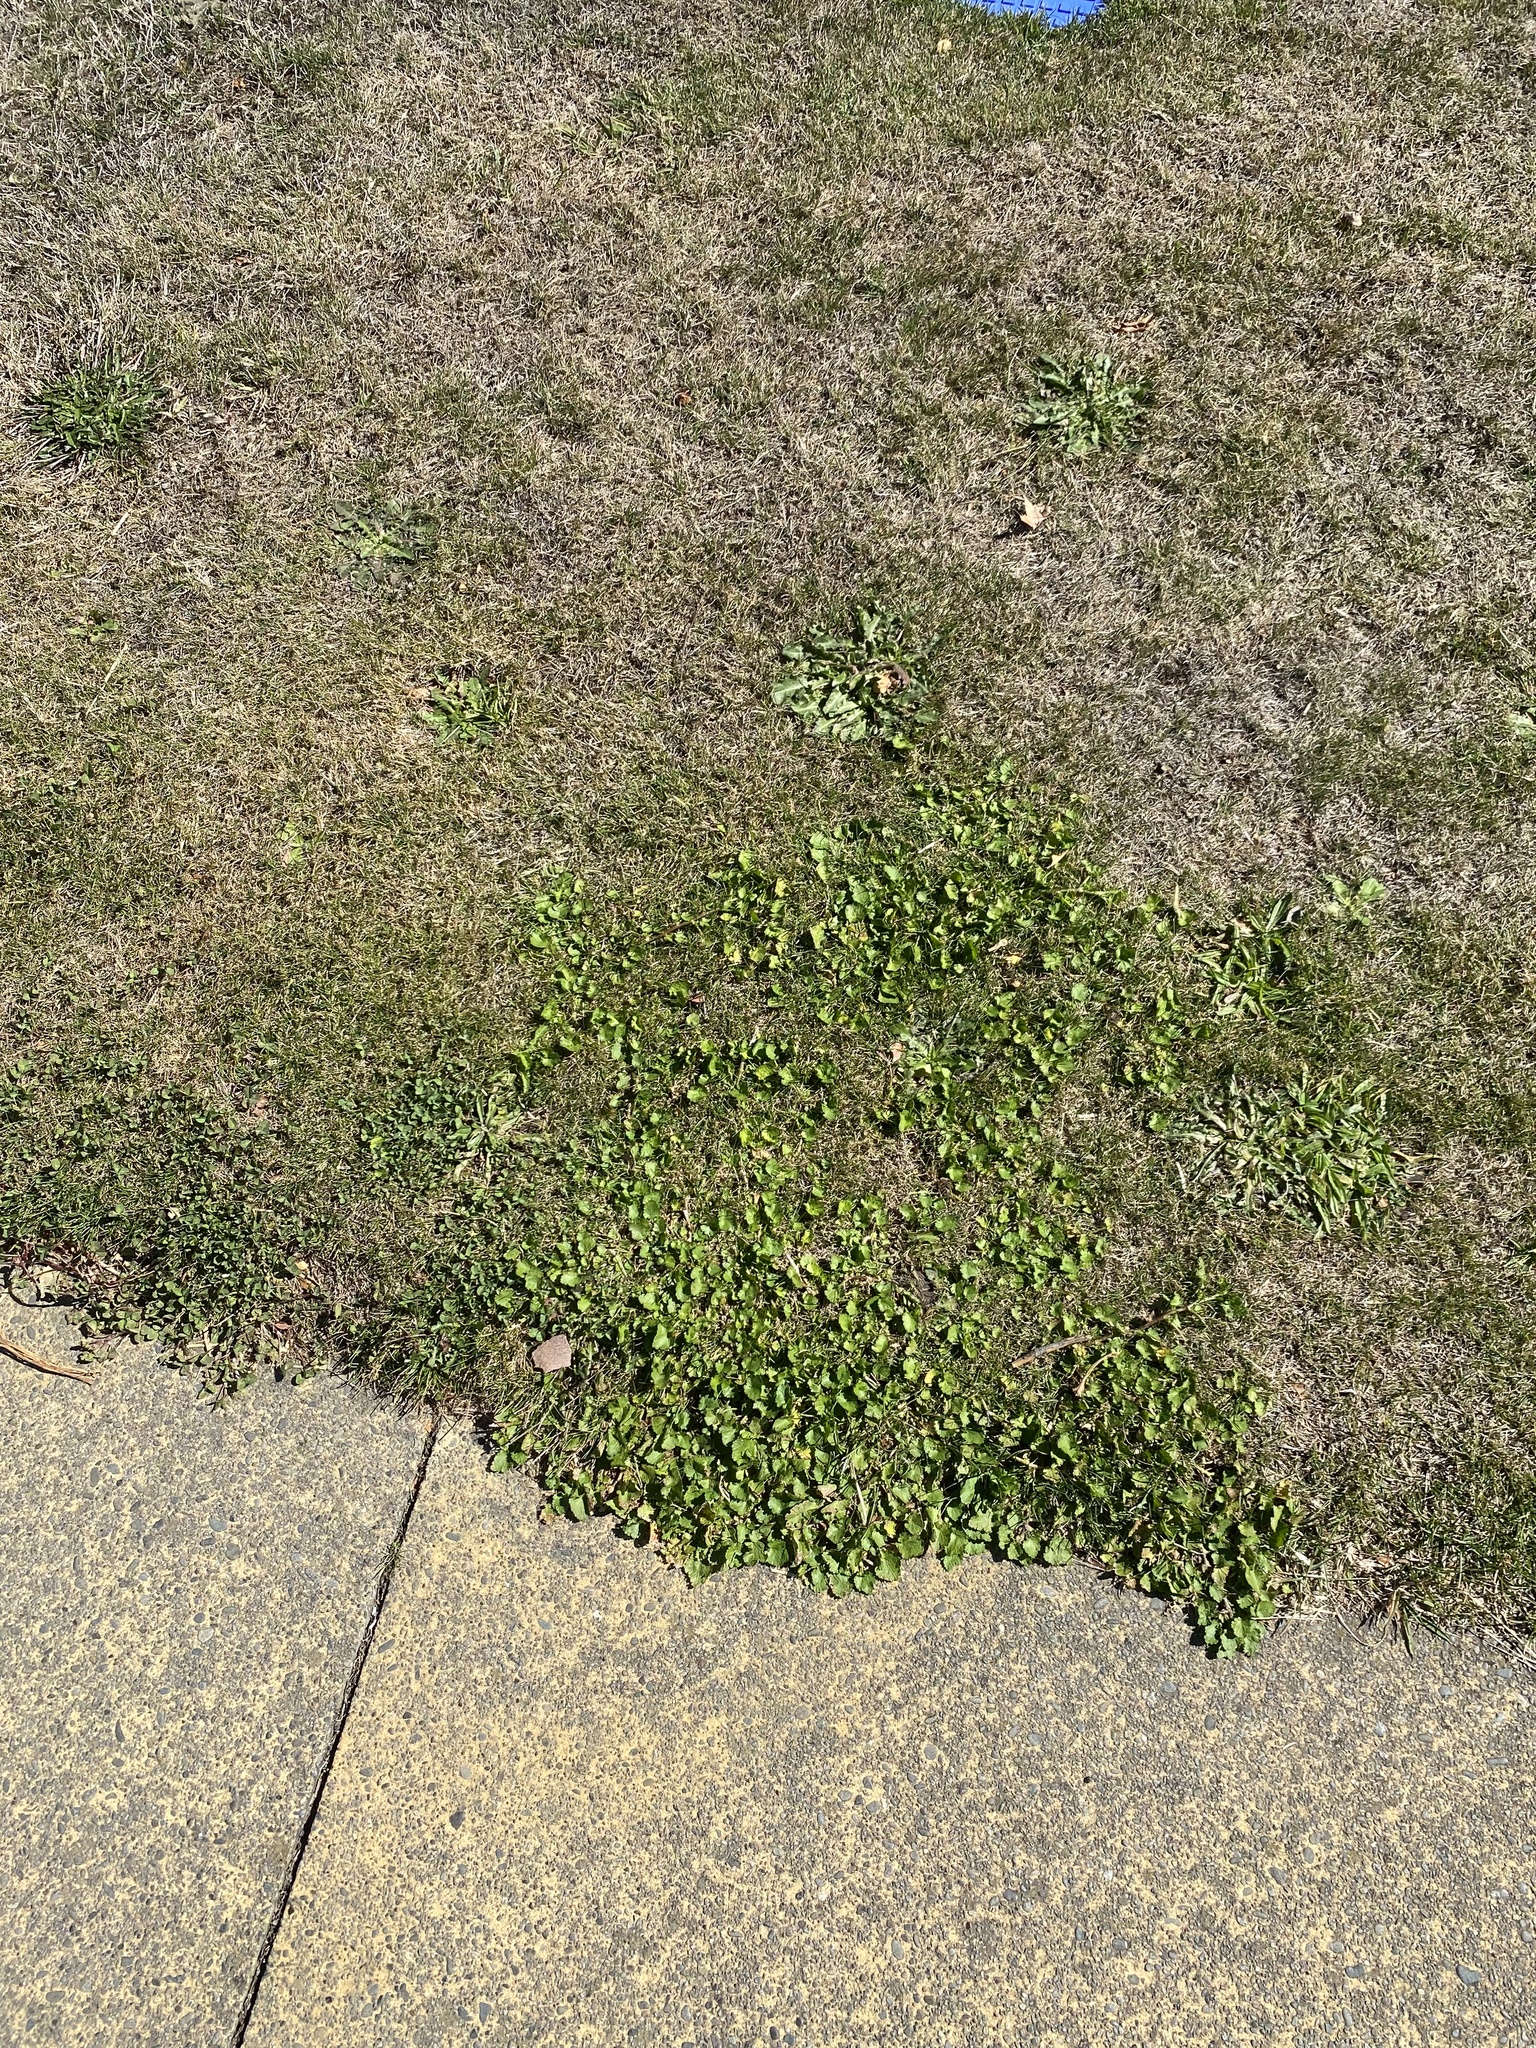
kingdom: Plantae
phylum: Tracheophyta
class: Magnoliopsida
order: Malvales
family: Malvaceae
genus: Modiola
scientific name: Modiola caroliniana
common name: Carolina bristlemallow
